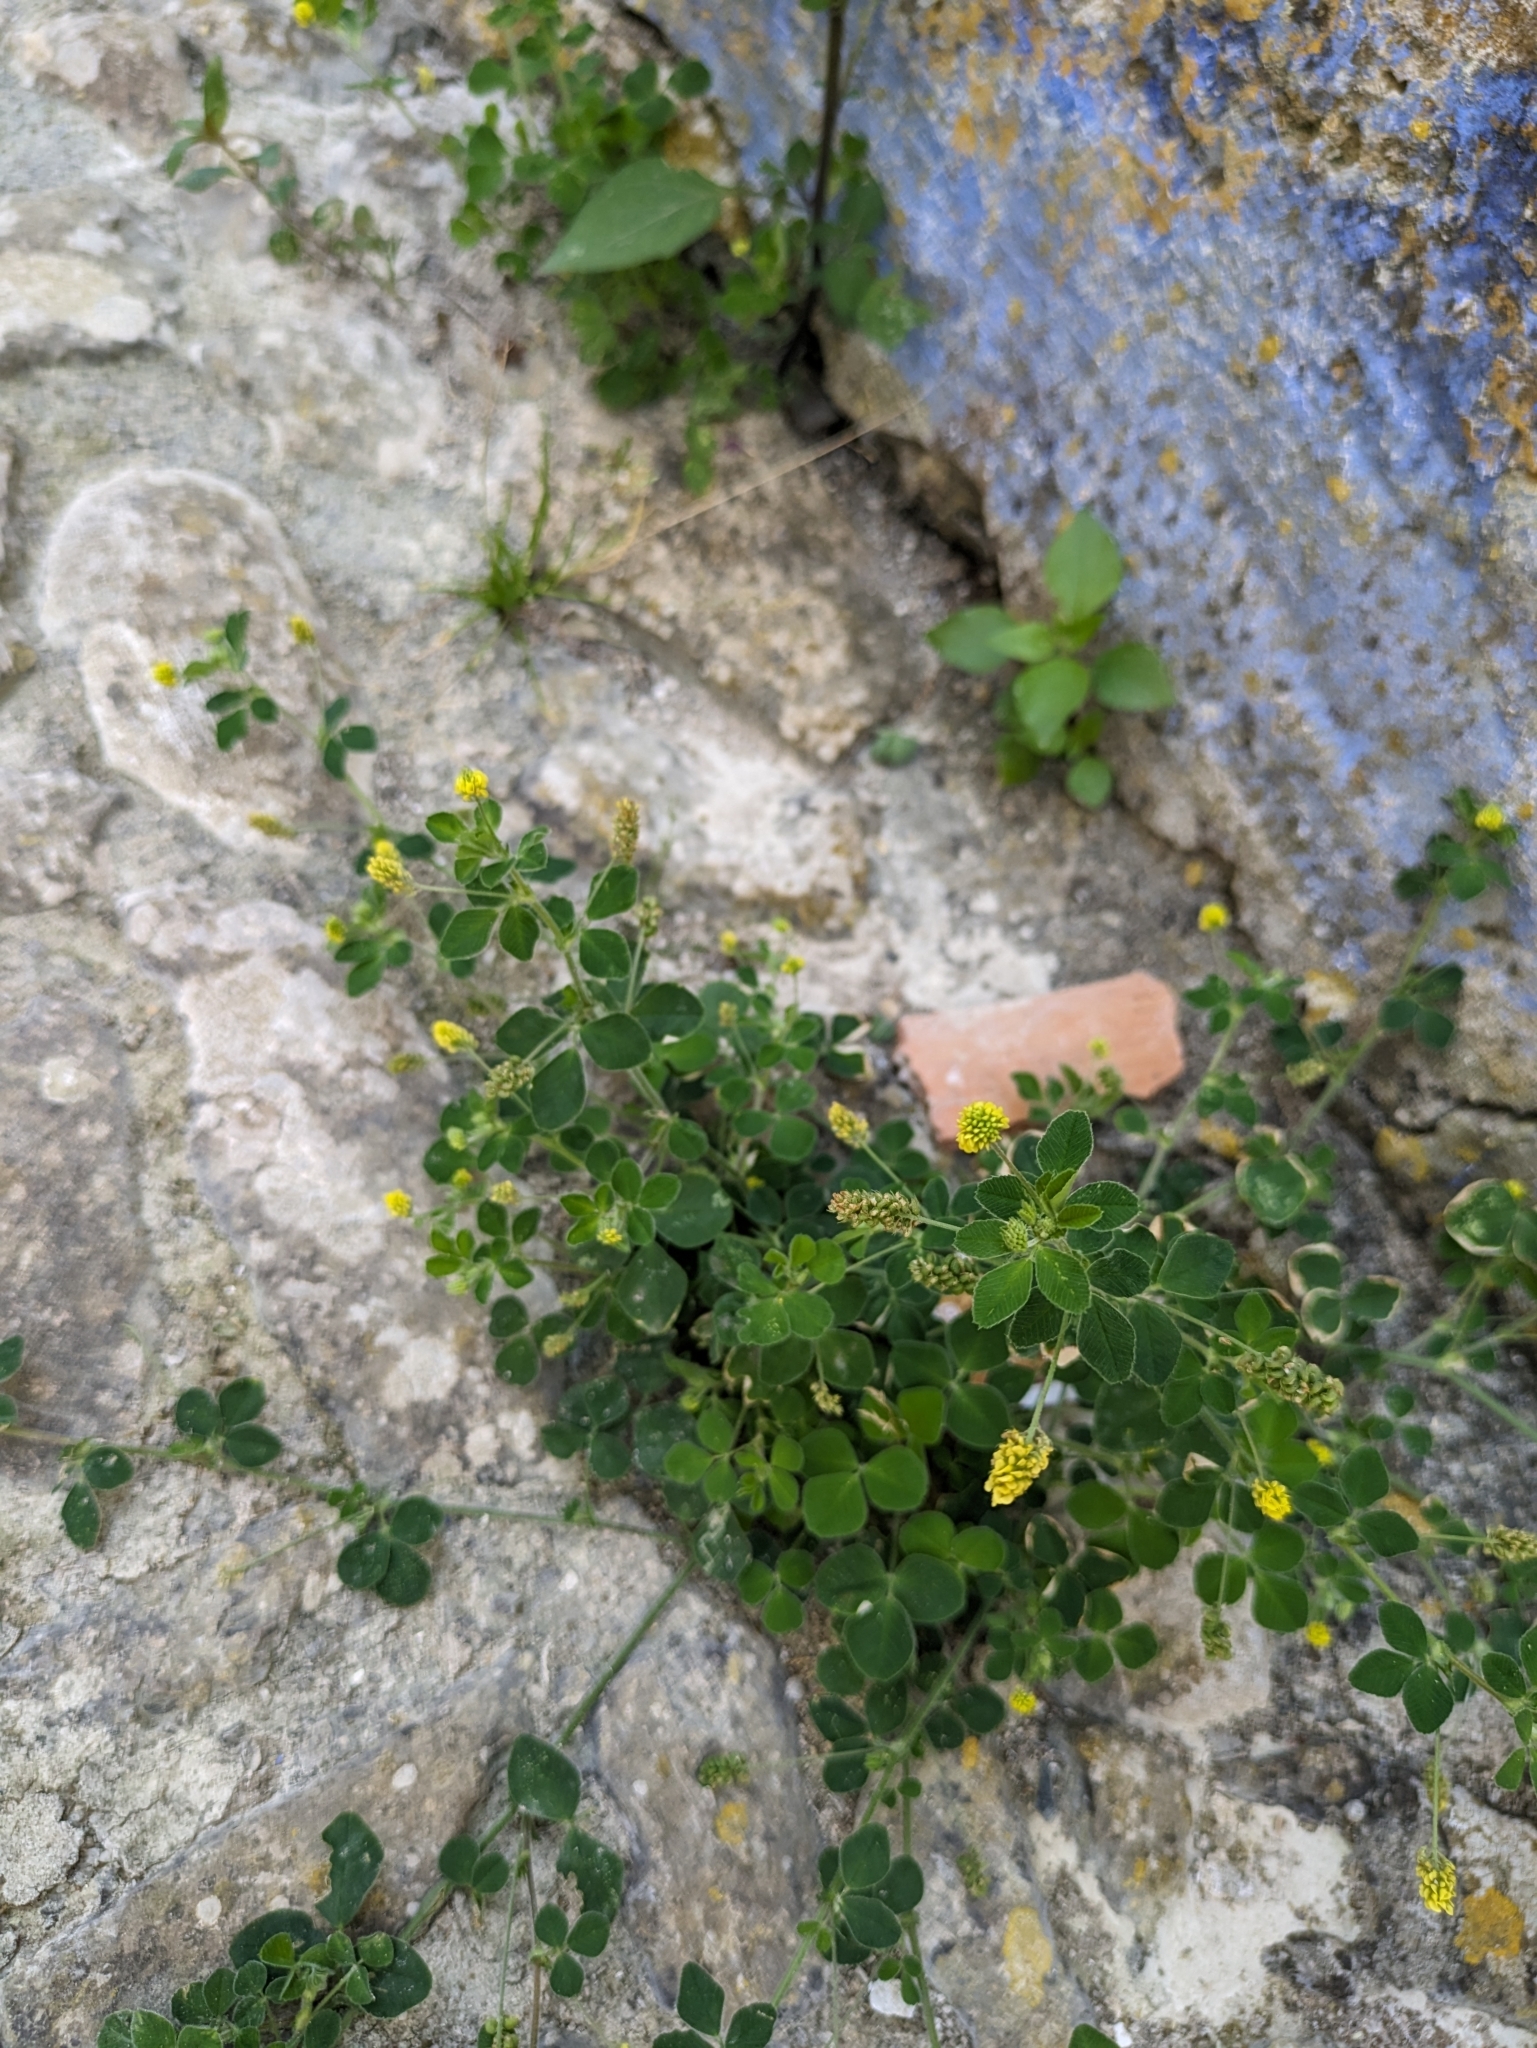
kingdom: Plantae
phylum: Tracheophyta
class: Magnoliopsida
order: Fabales
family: Fabaceae
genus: Medicago
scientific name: Medicago lupulina
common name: Black medick
